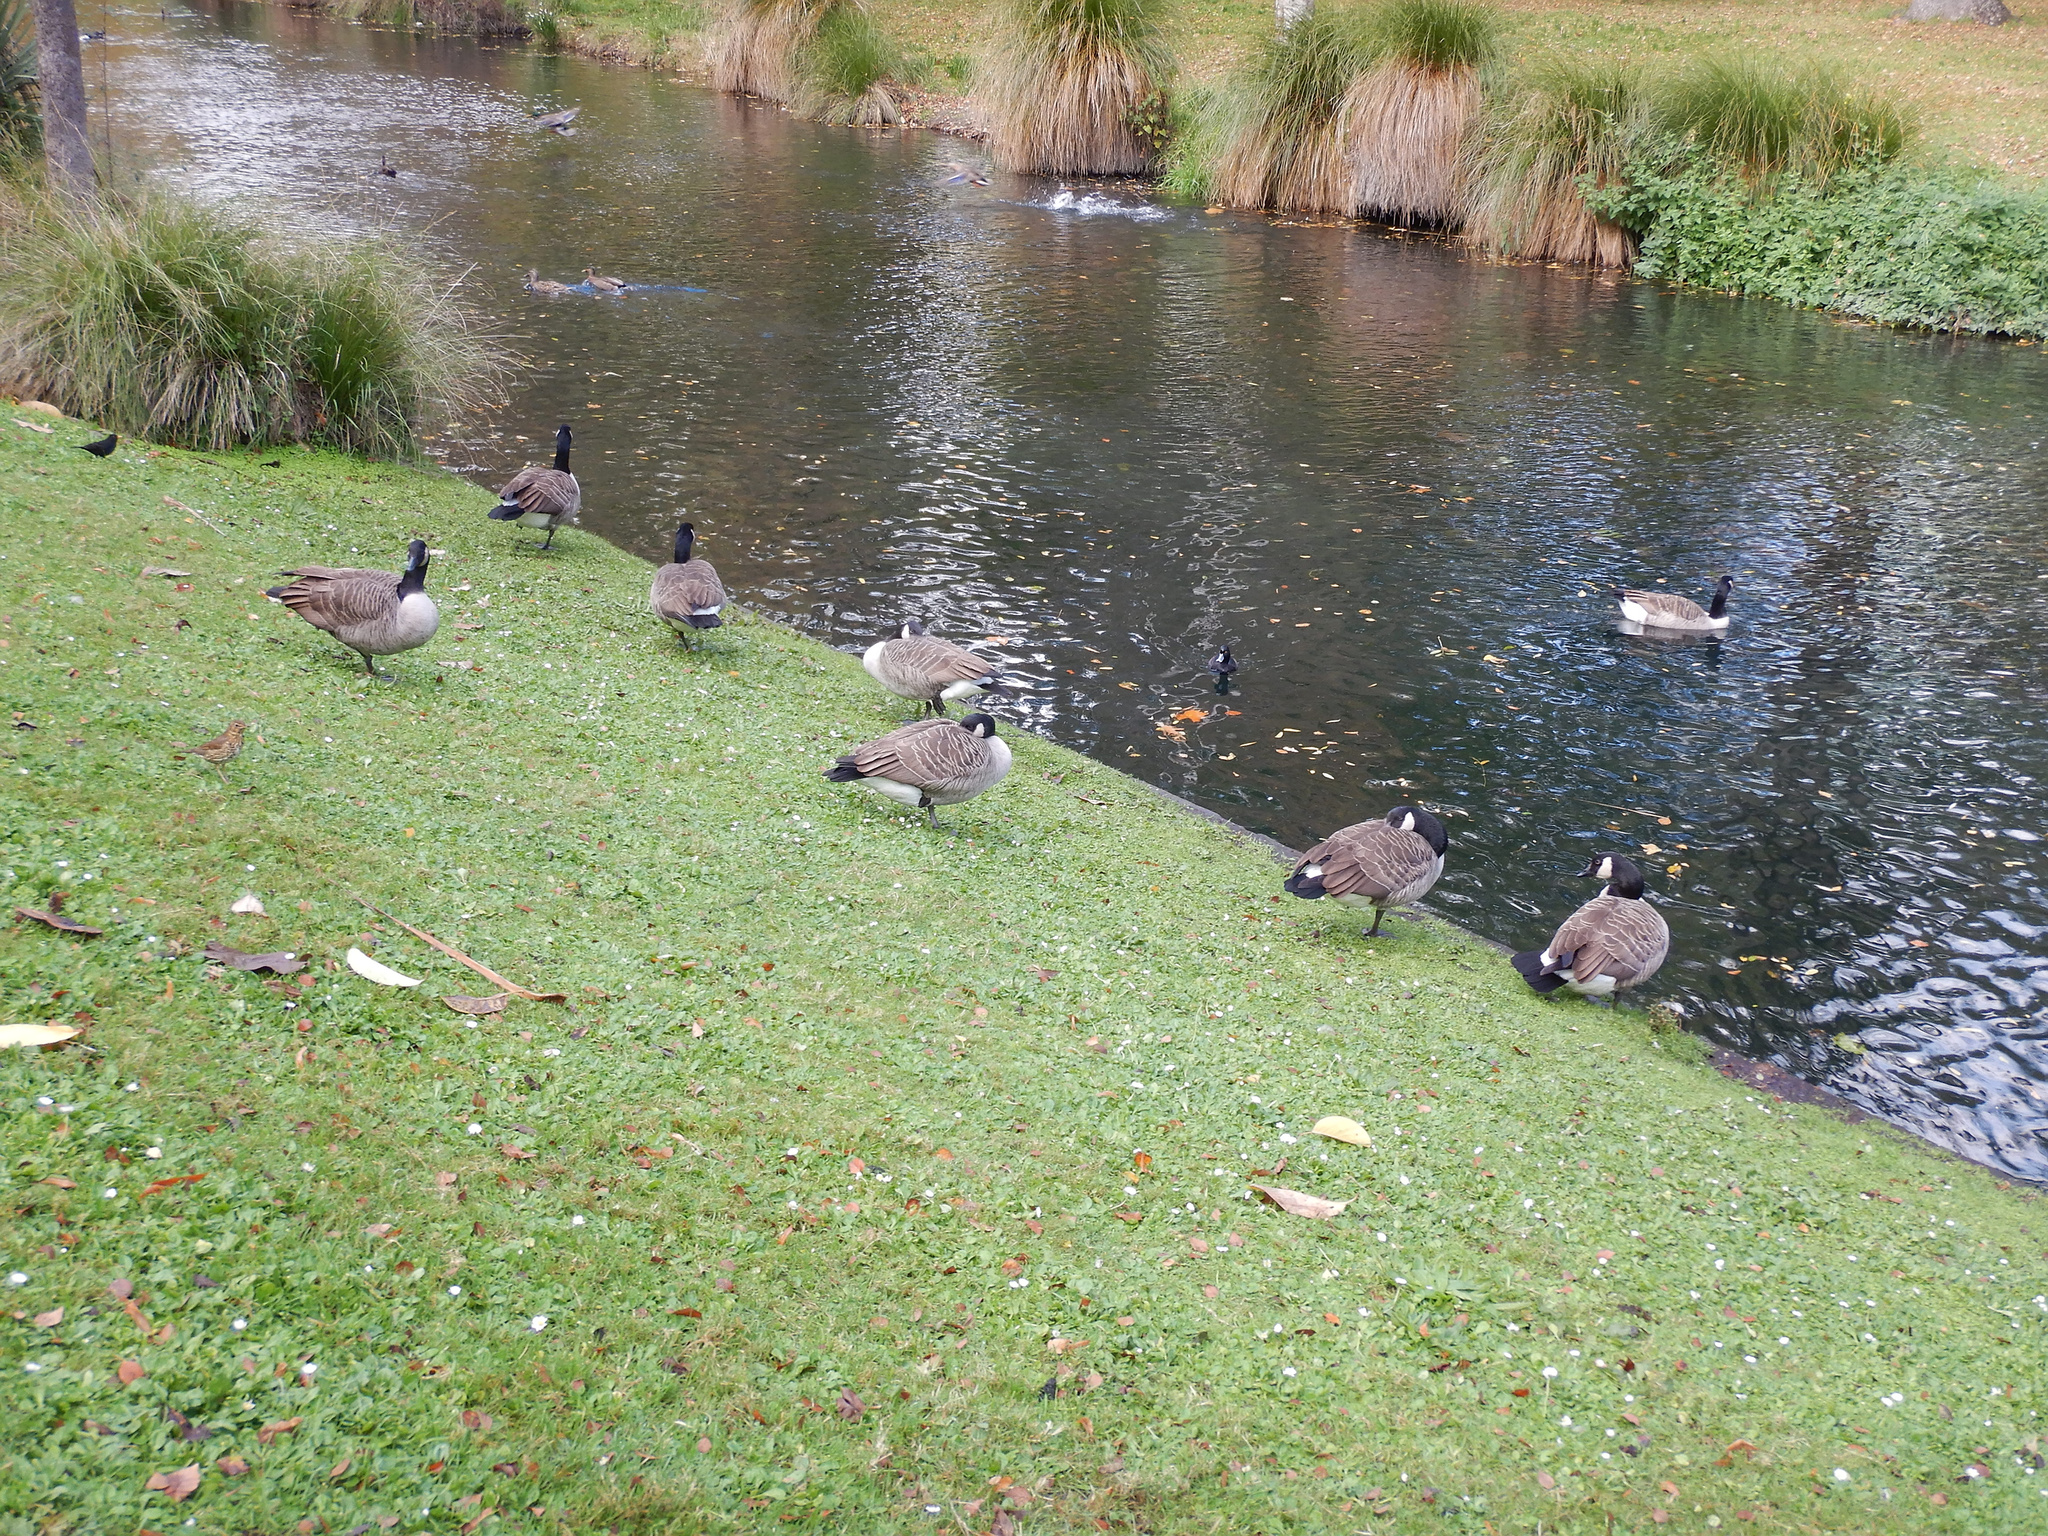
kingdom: Animalia
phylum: Chordata
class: Aves
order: Anseriformes
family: Anatidae
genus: Branta
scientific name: Branta canadensis
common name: Canada goose
